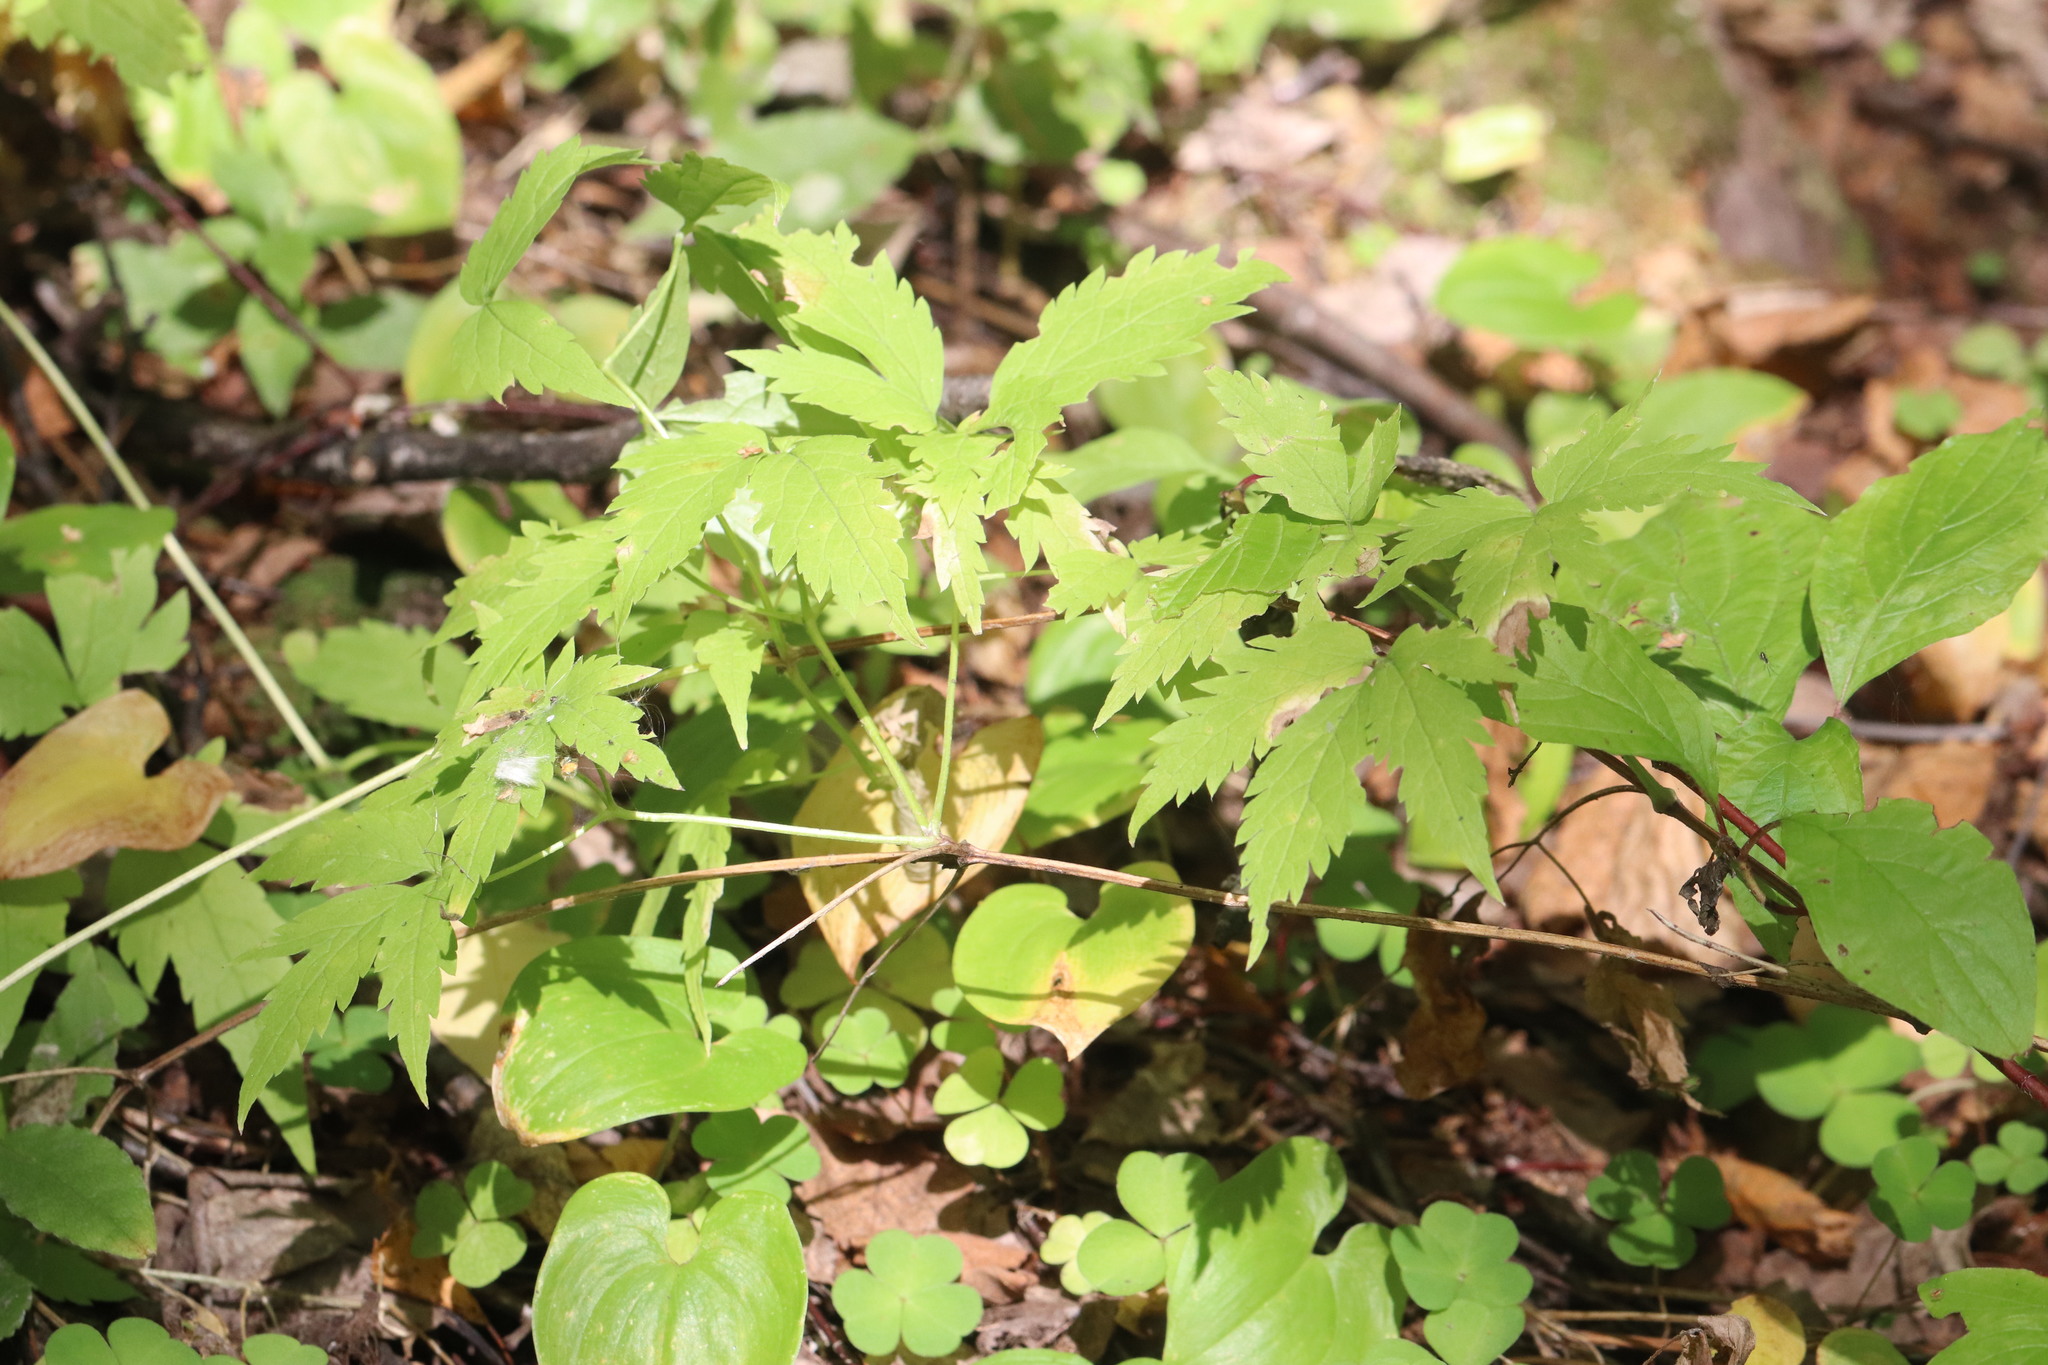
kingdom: Plantae
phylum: Tracheophyta
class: Magnoliopsida
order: Ranunculales
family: Ranunculaceae
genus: Clematis
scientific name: Clematis sibirica
